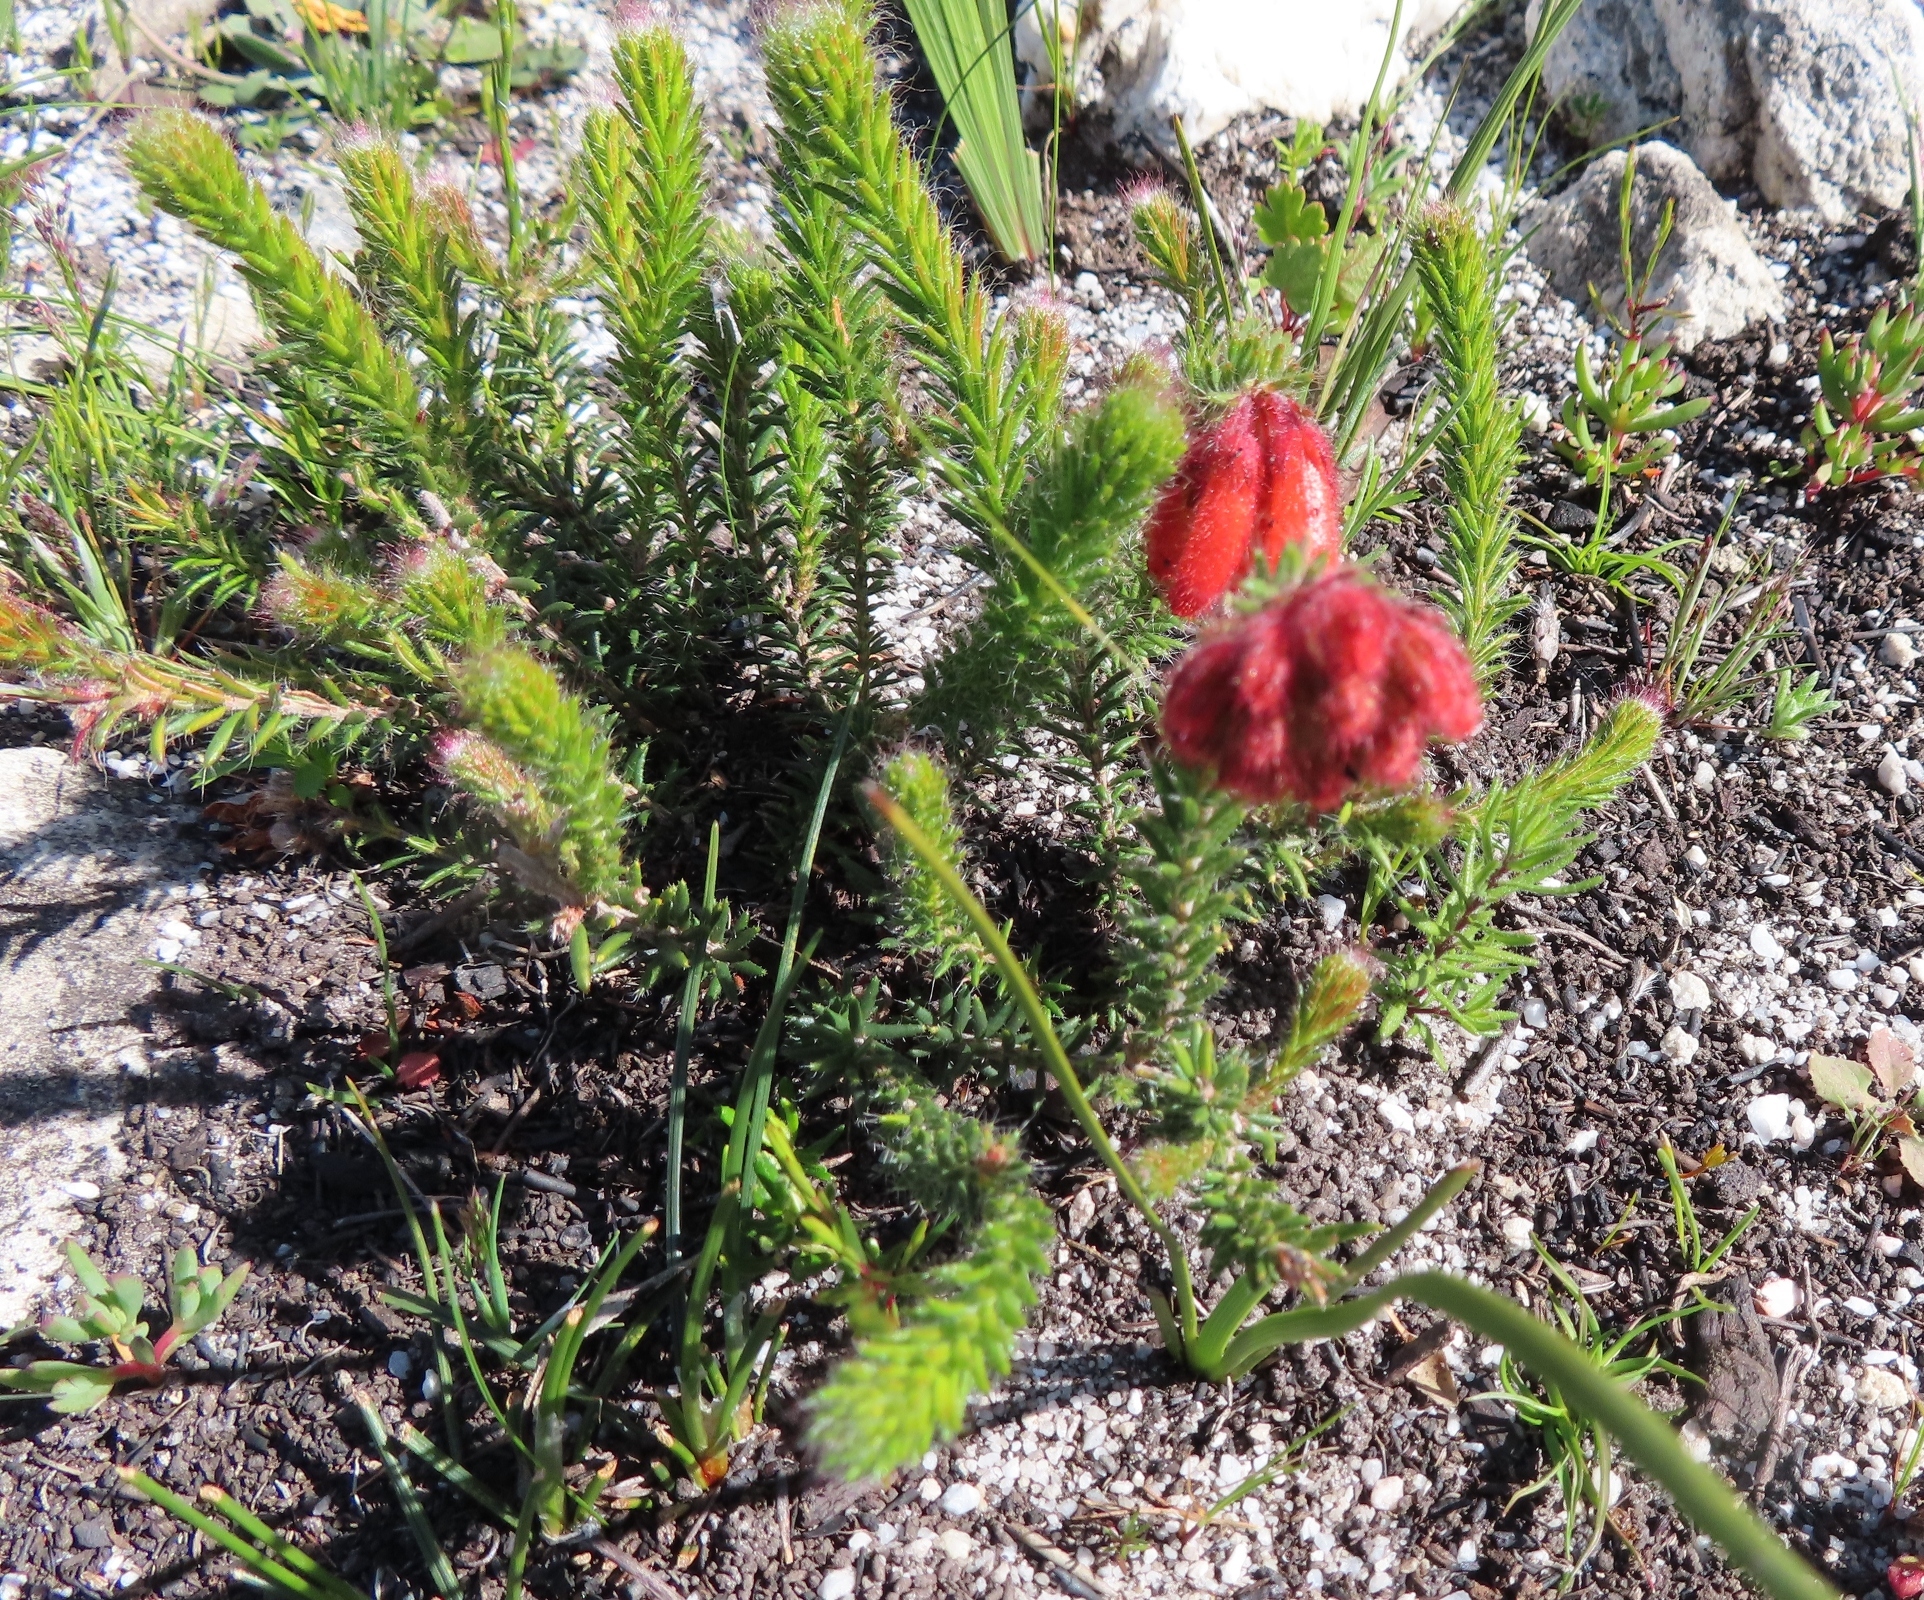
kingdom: Plantae
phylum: Tracheophyta
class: Magnoliopsida
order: Ericales
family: Ericaceae
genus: Erica
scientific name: Erica cerinthoides
